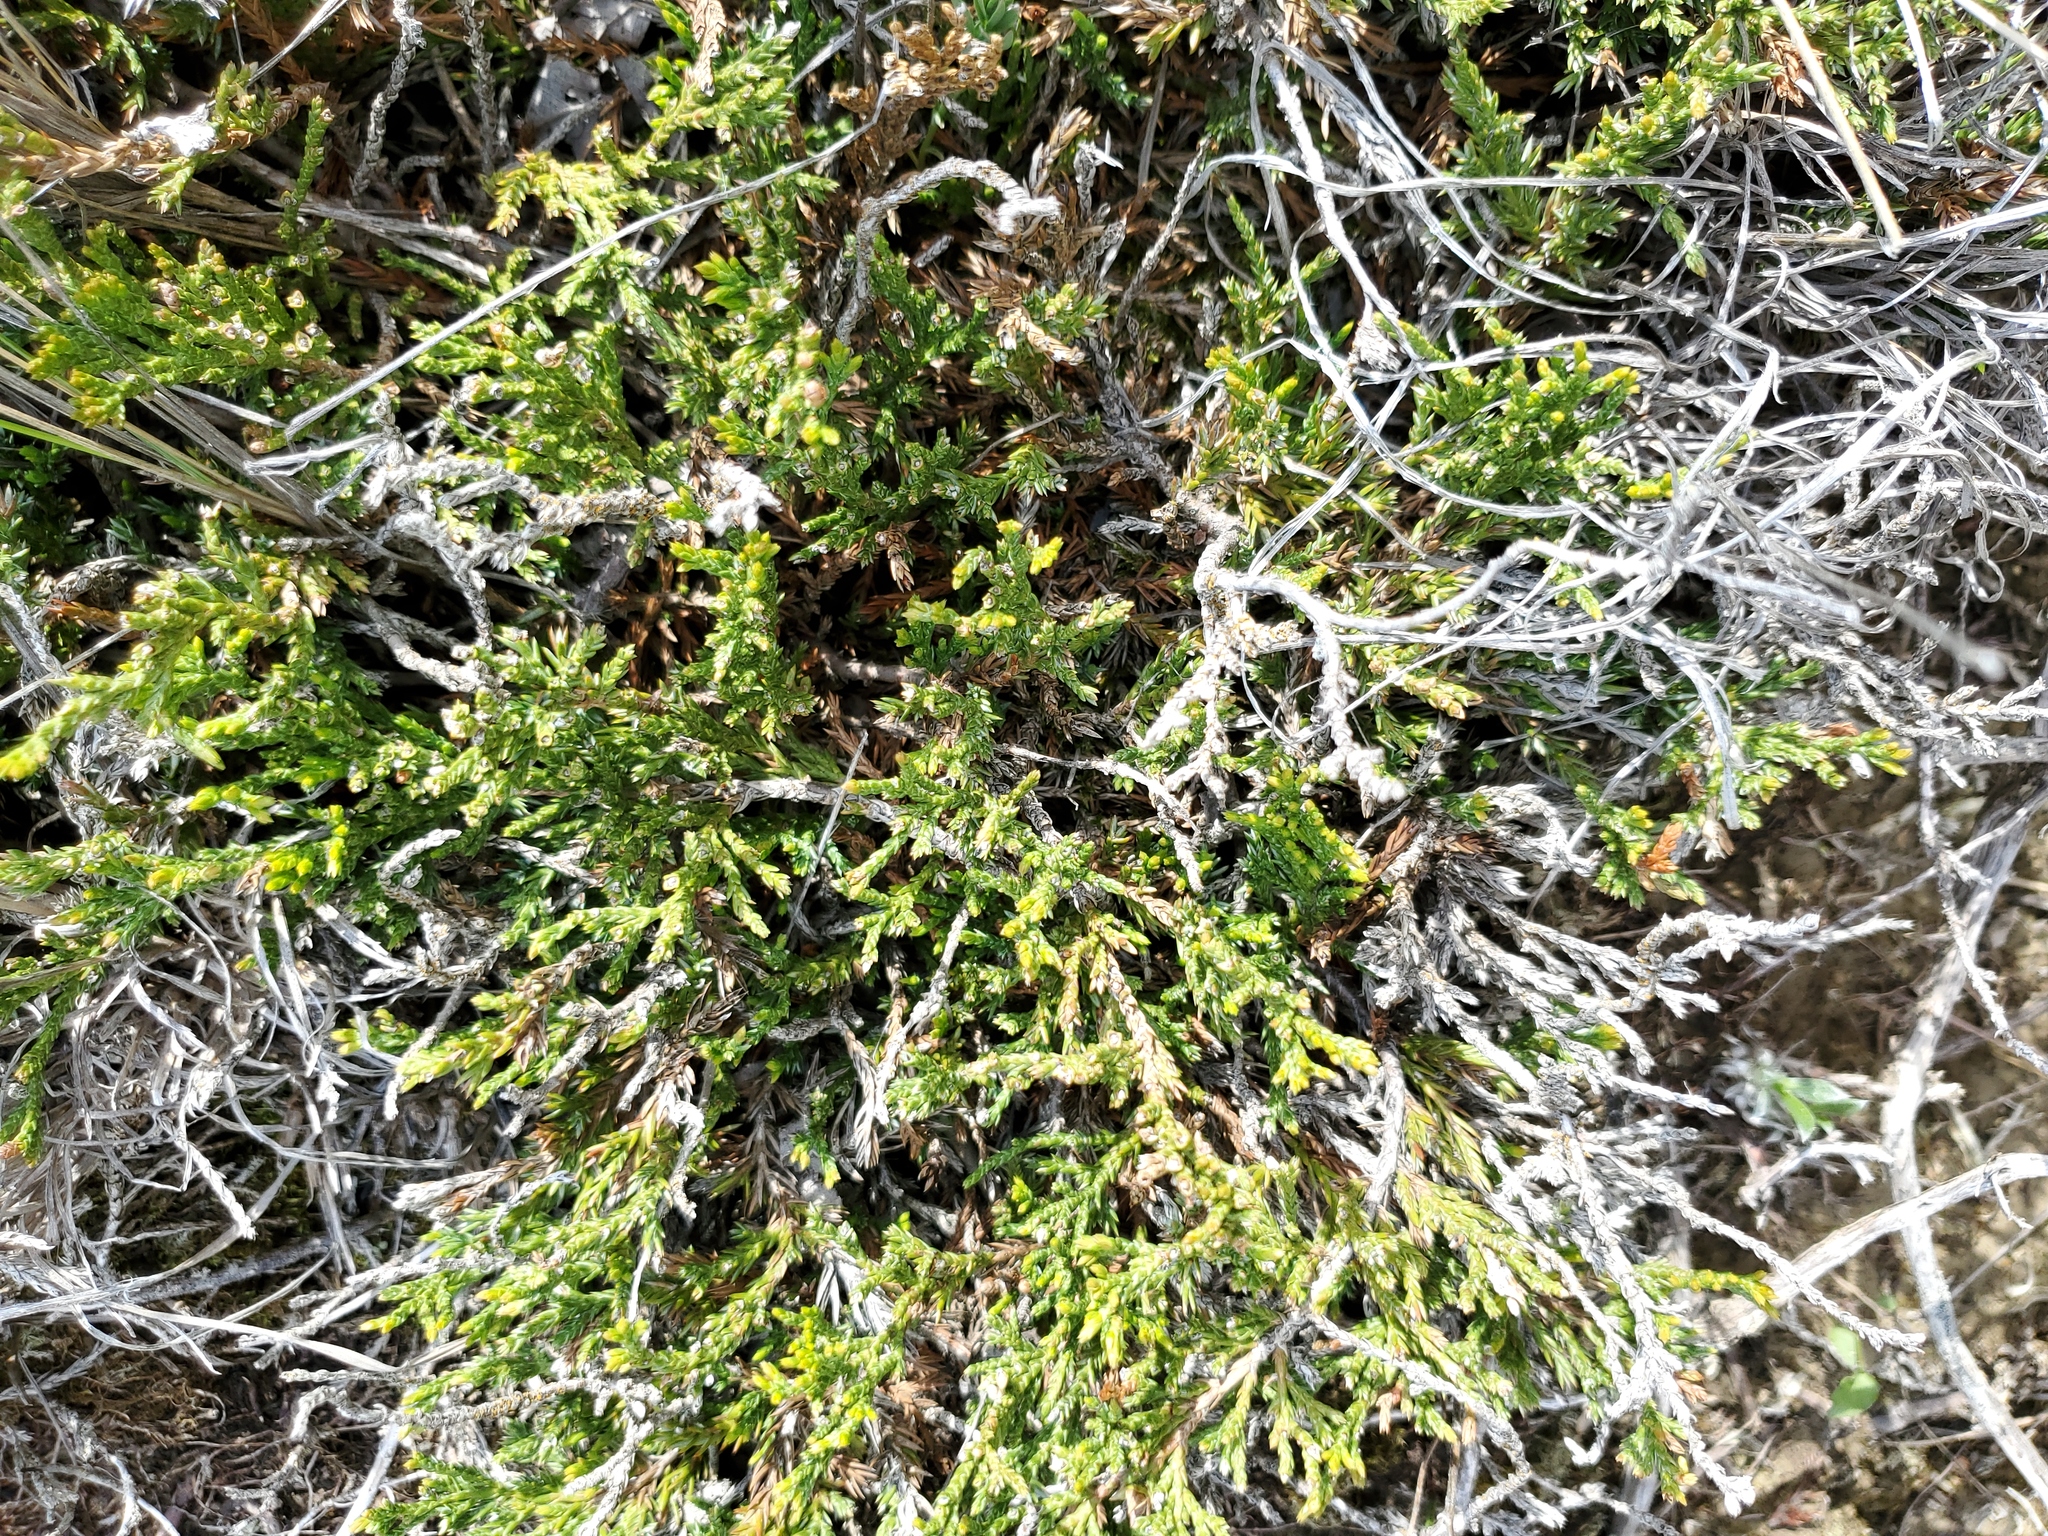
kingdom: Plantae
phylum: Tracheophyta
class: Pinopsida
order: Pinales
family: Cupressaceae
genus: Juniperus
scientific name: Juniperus horizontalis
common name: Creeping juniper
